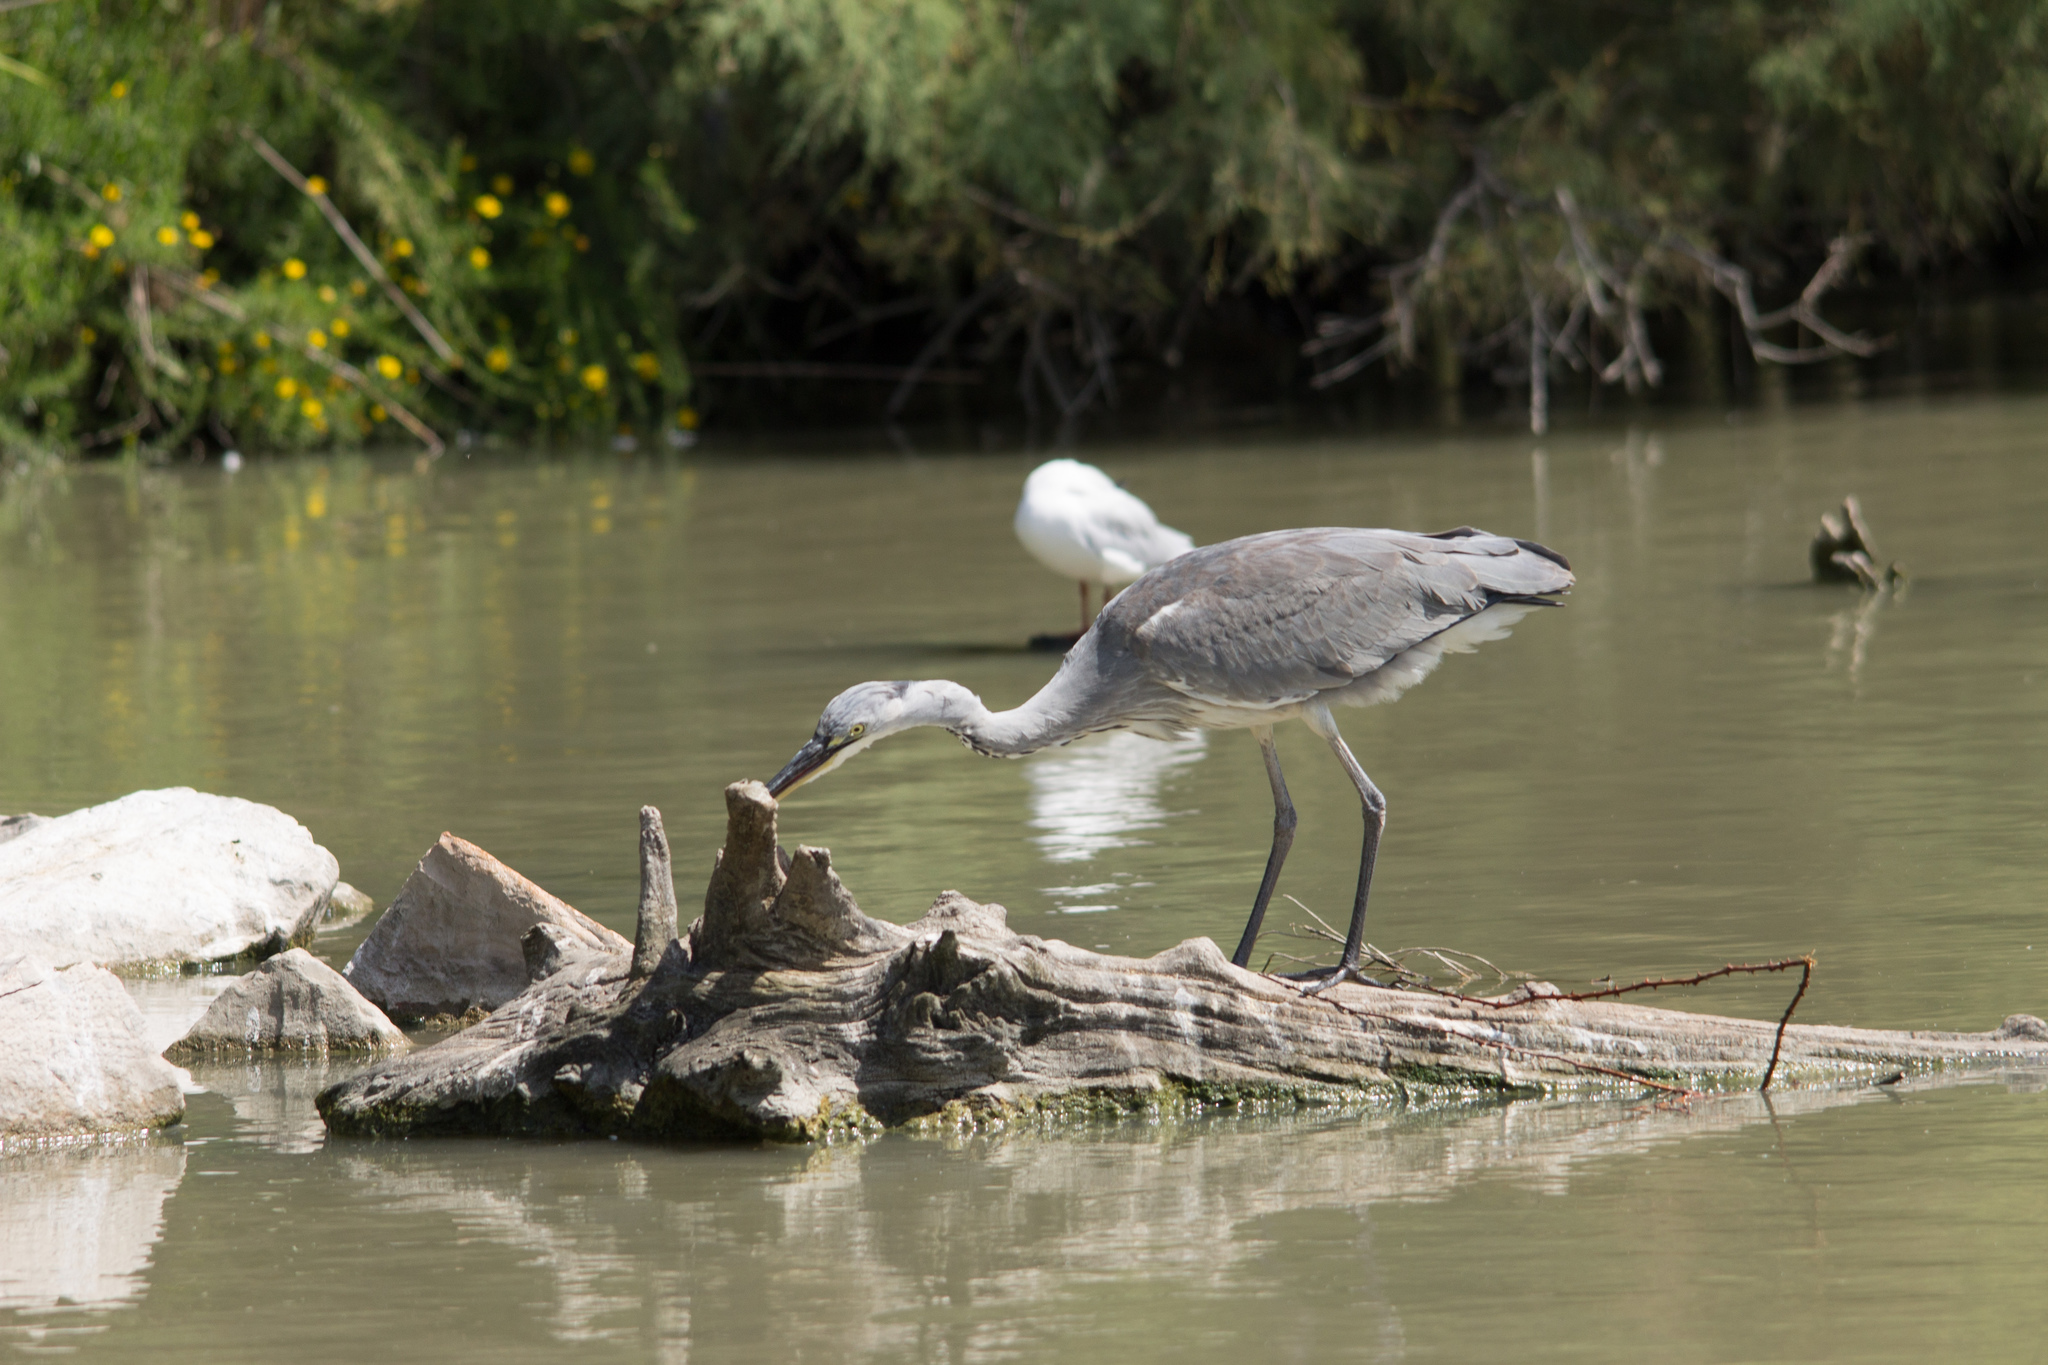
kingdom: Animalia
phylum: Chordata
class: Aves
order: Pelecaniformes
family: Ardeidae
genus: Ardea
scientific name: Ardea cinerea
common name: Grey heron
